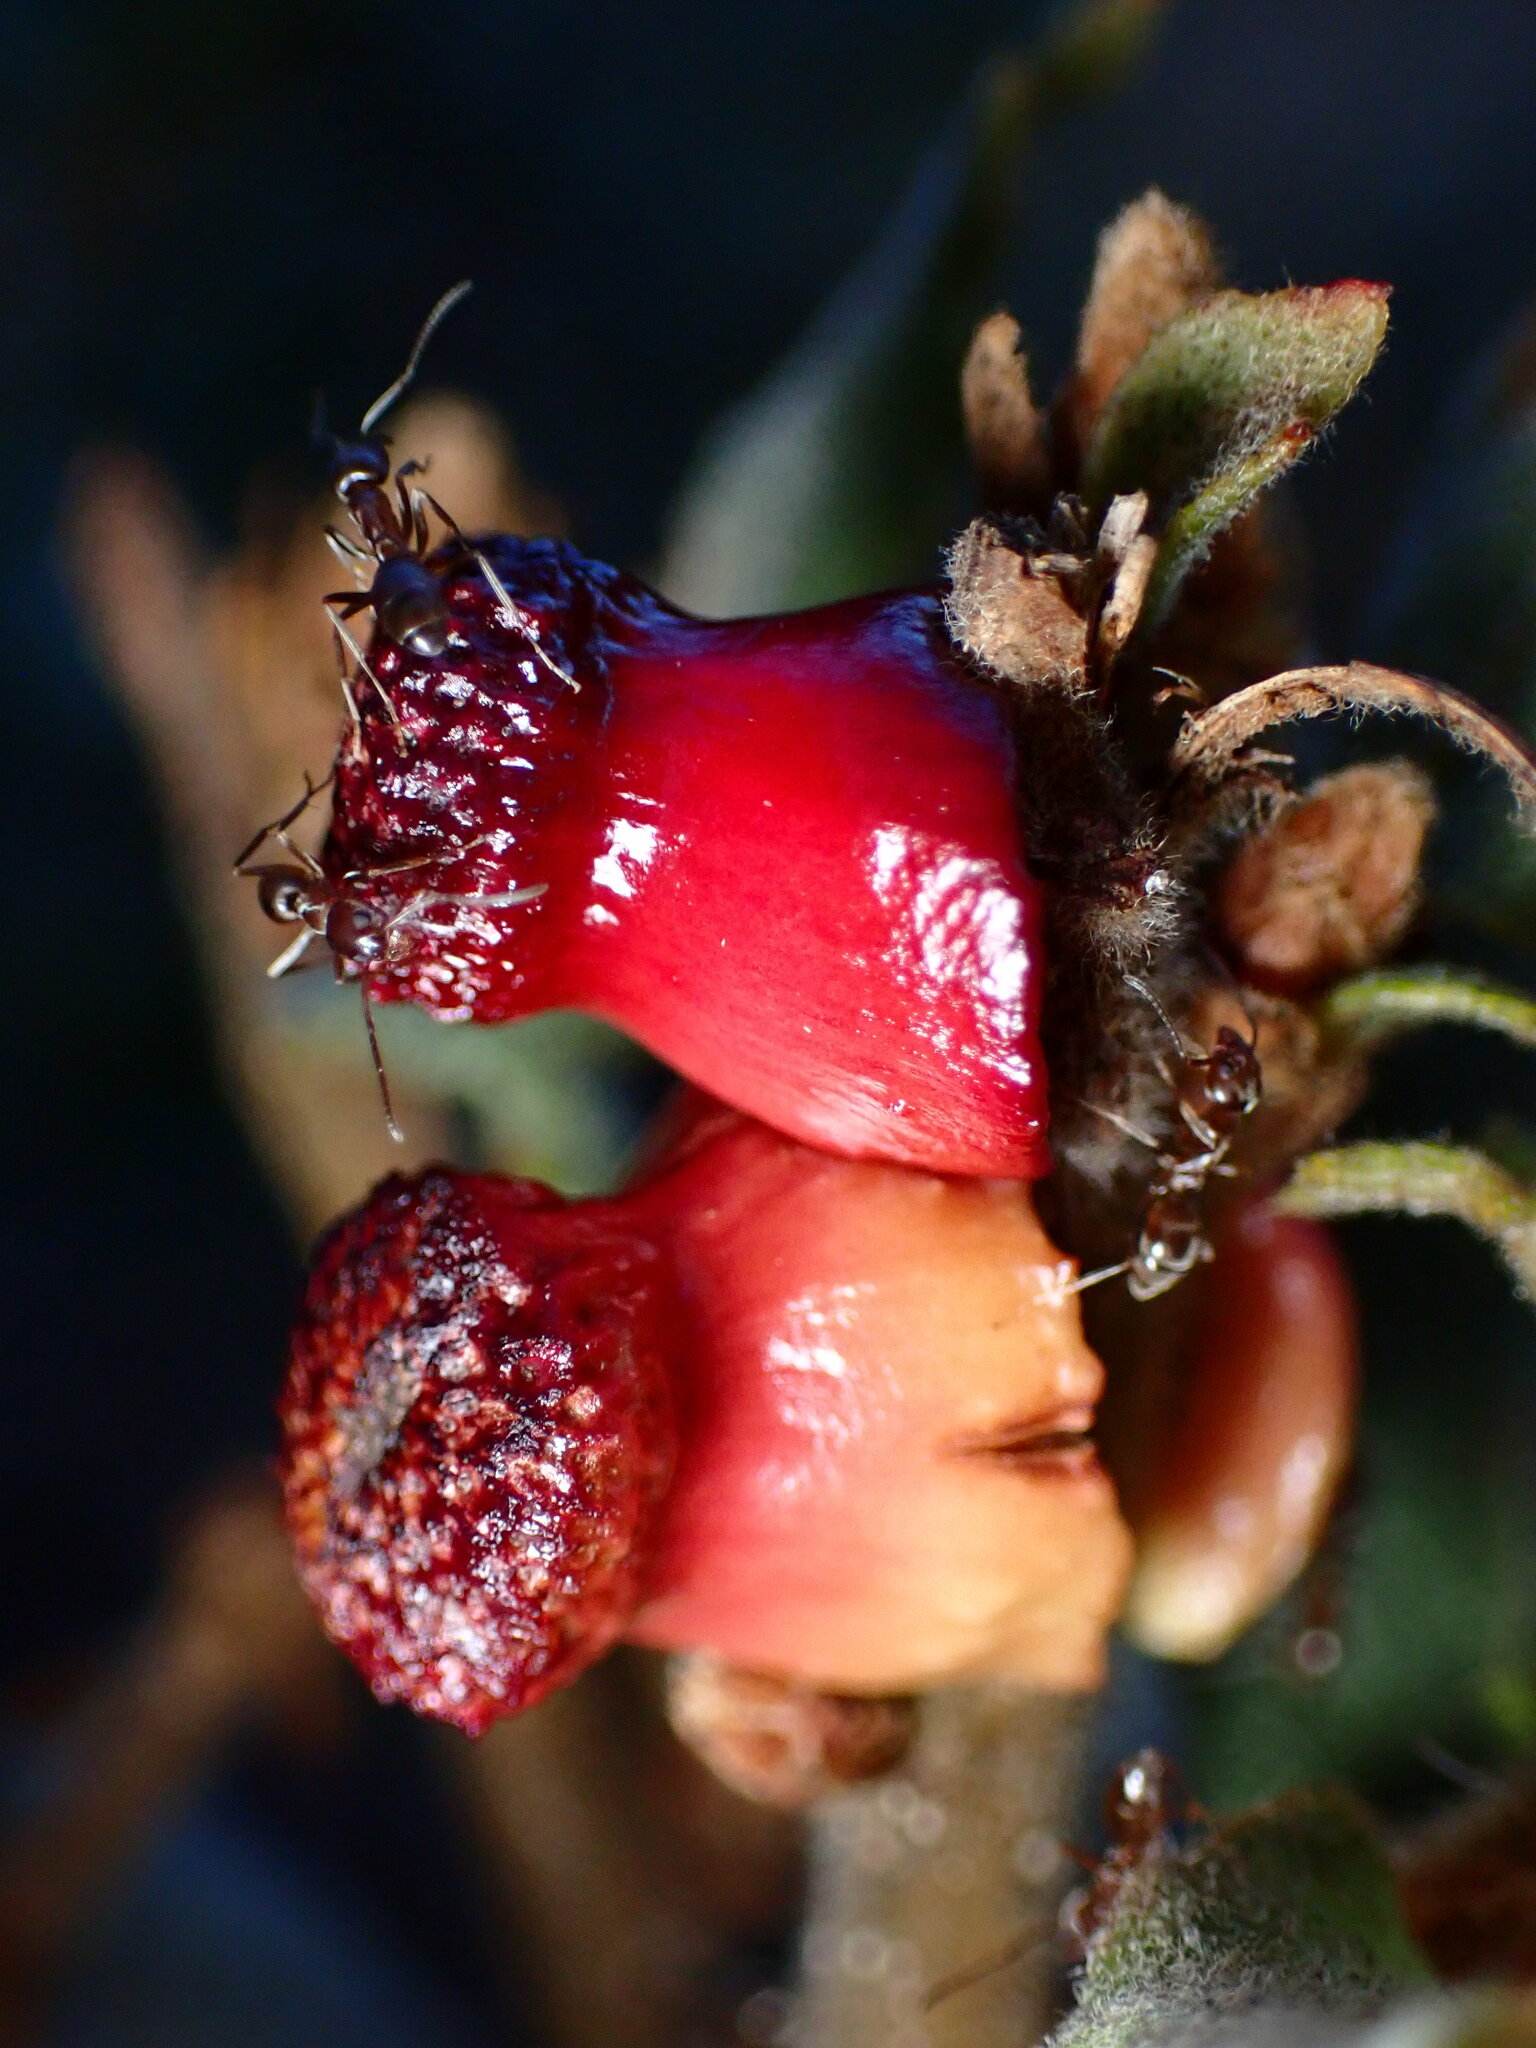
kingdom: Animalia
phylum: Arthropoda
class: Insecta
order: Hymenoptera
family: Cynipidae
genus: Disholcaspis
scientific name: Disholcaspis prehensa
